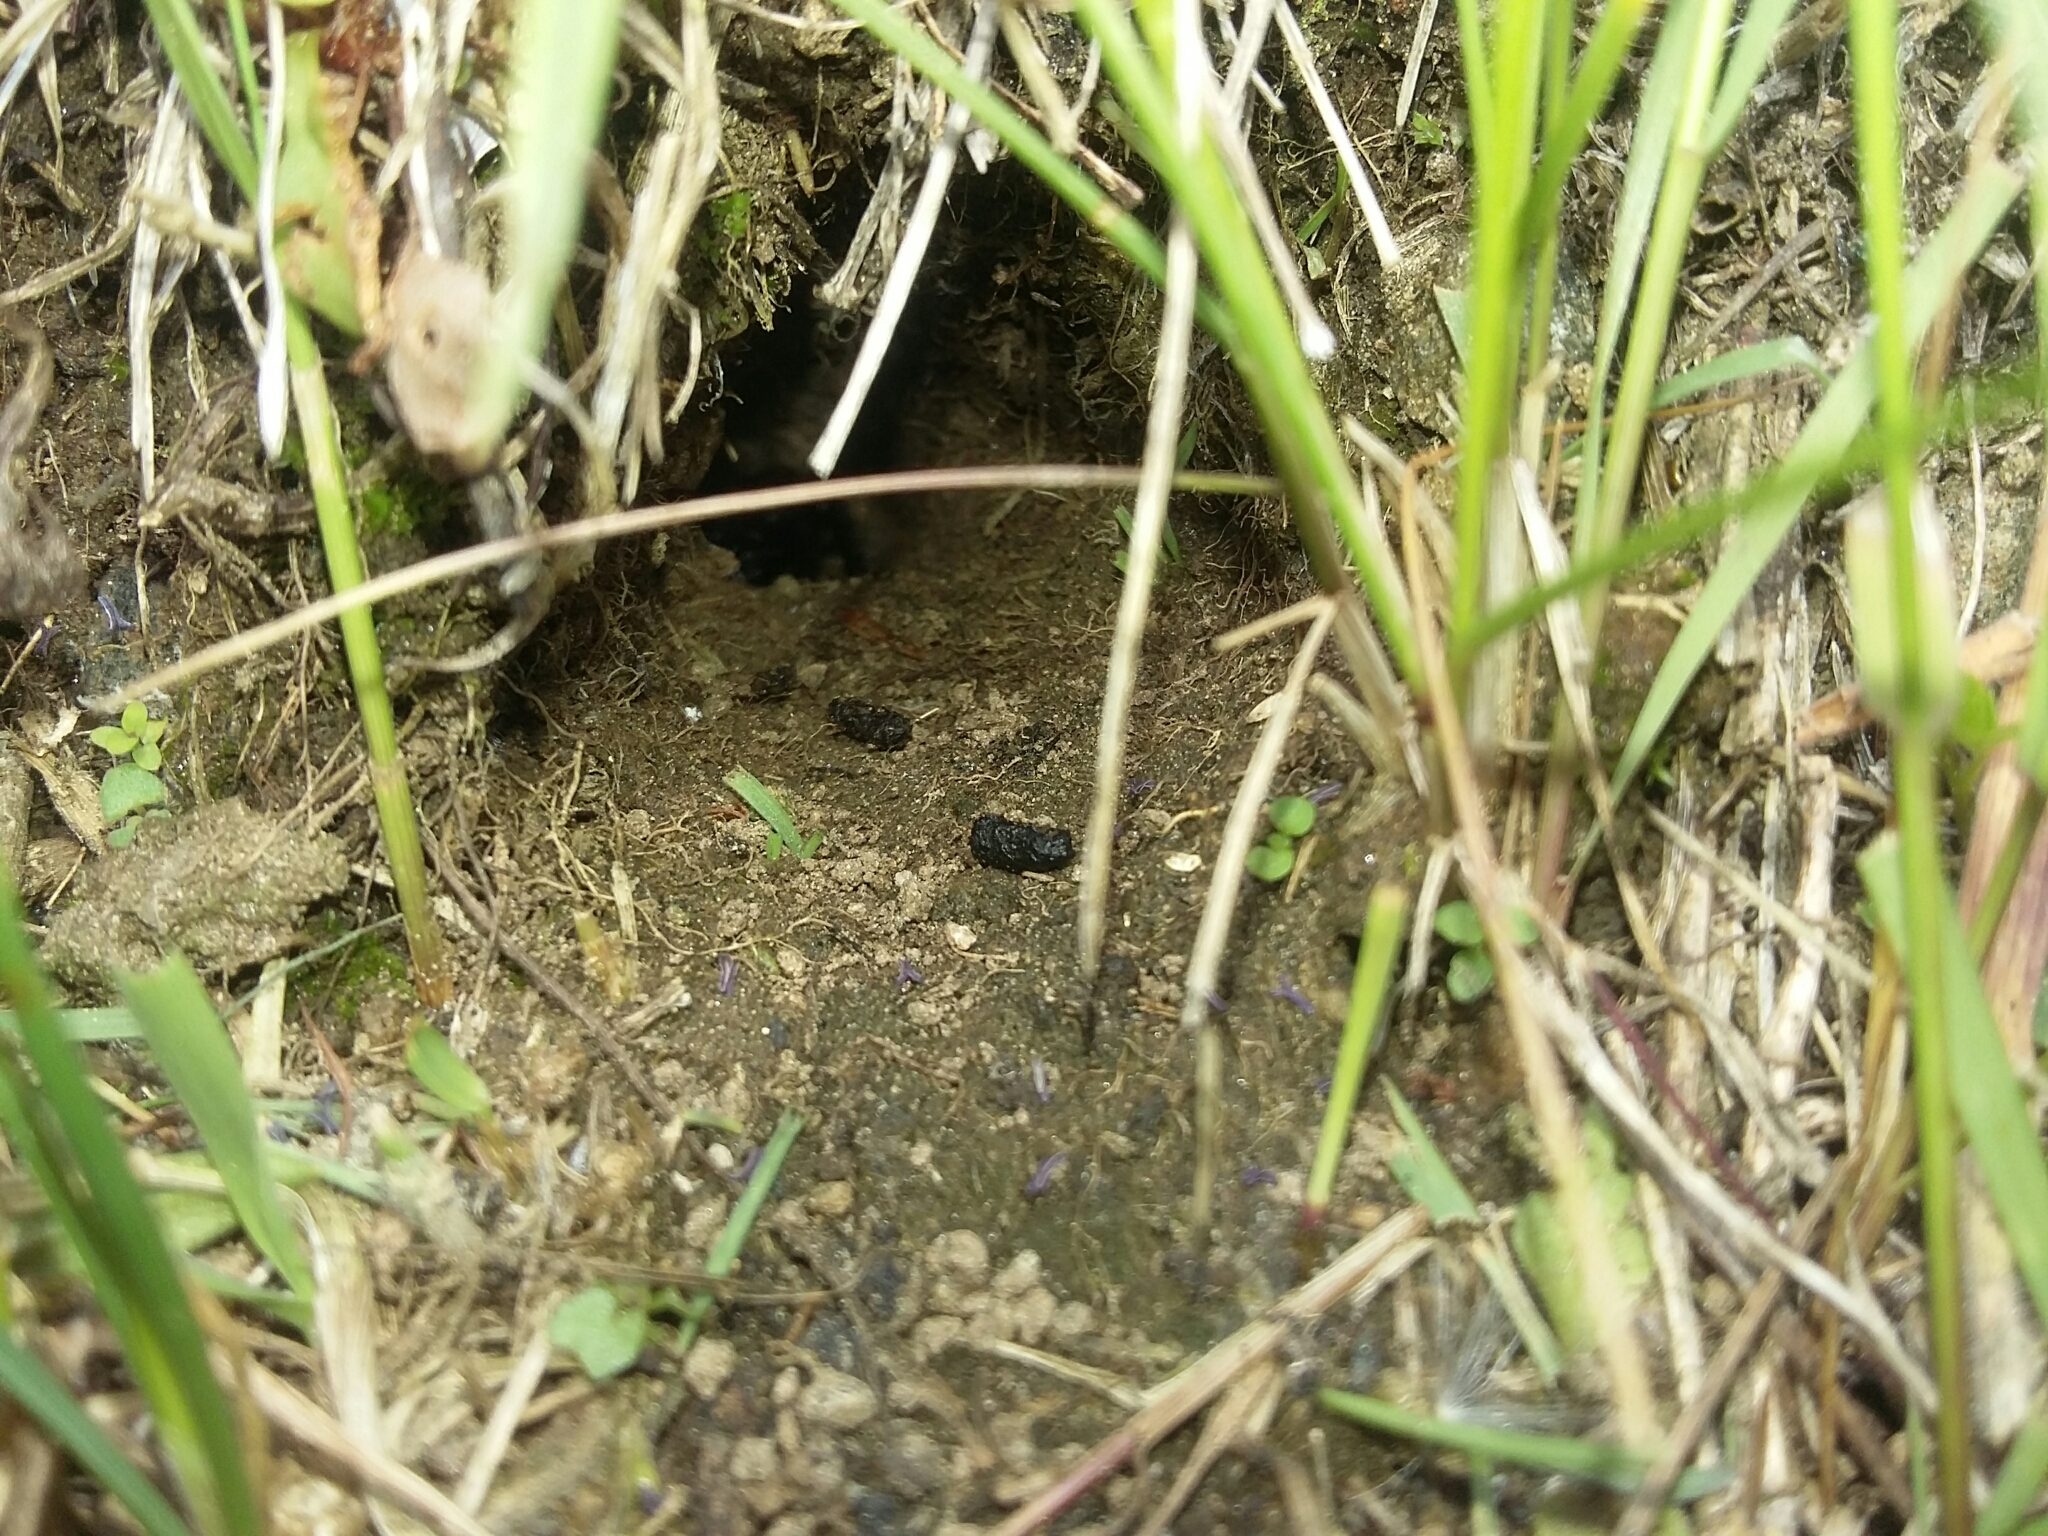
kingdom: Animalia
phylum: Arthropoda
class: Insecta
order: Orthoptera
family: Gryllidae
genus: Gryllus
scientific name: Gryllus campestris
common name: Field cricket
